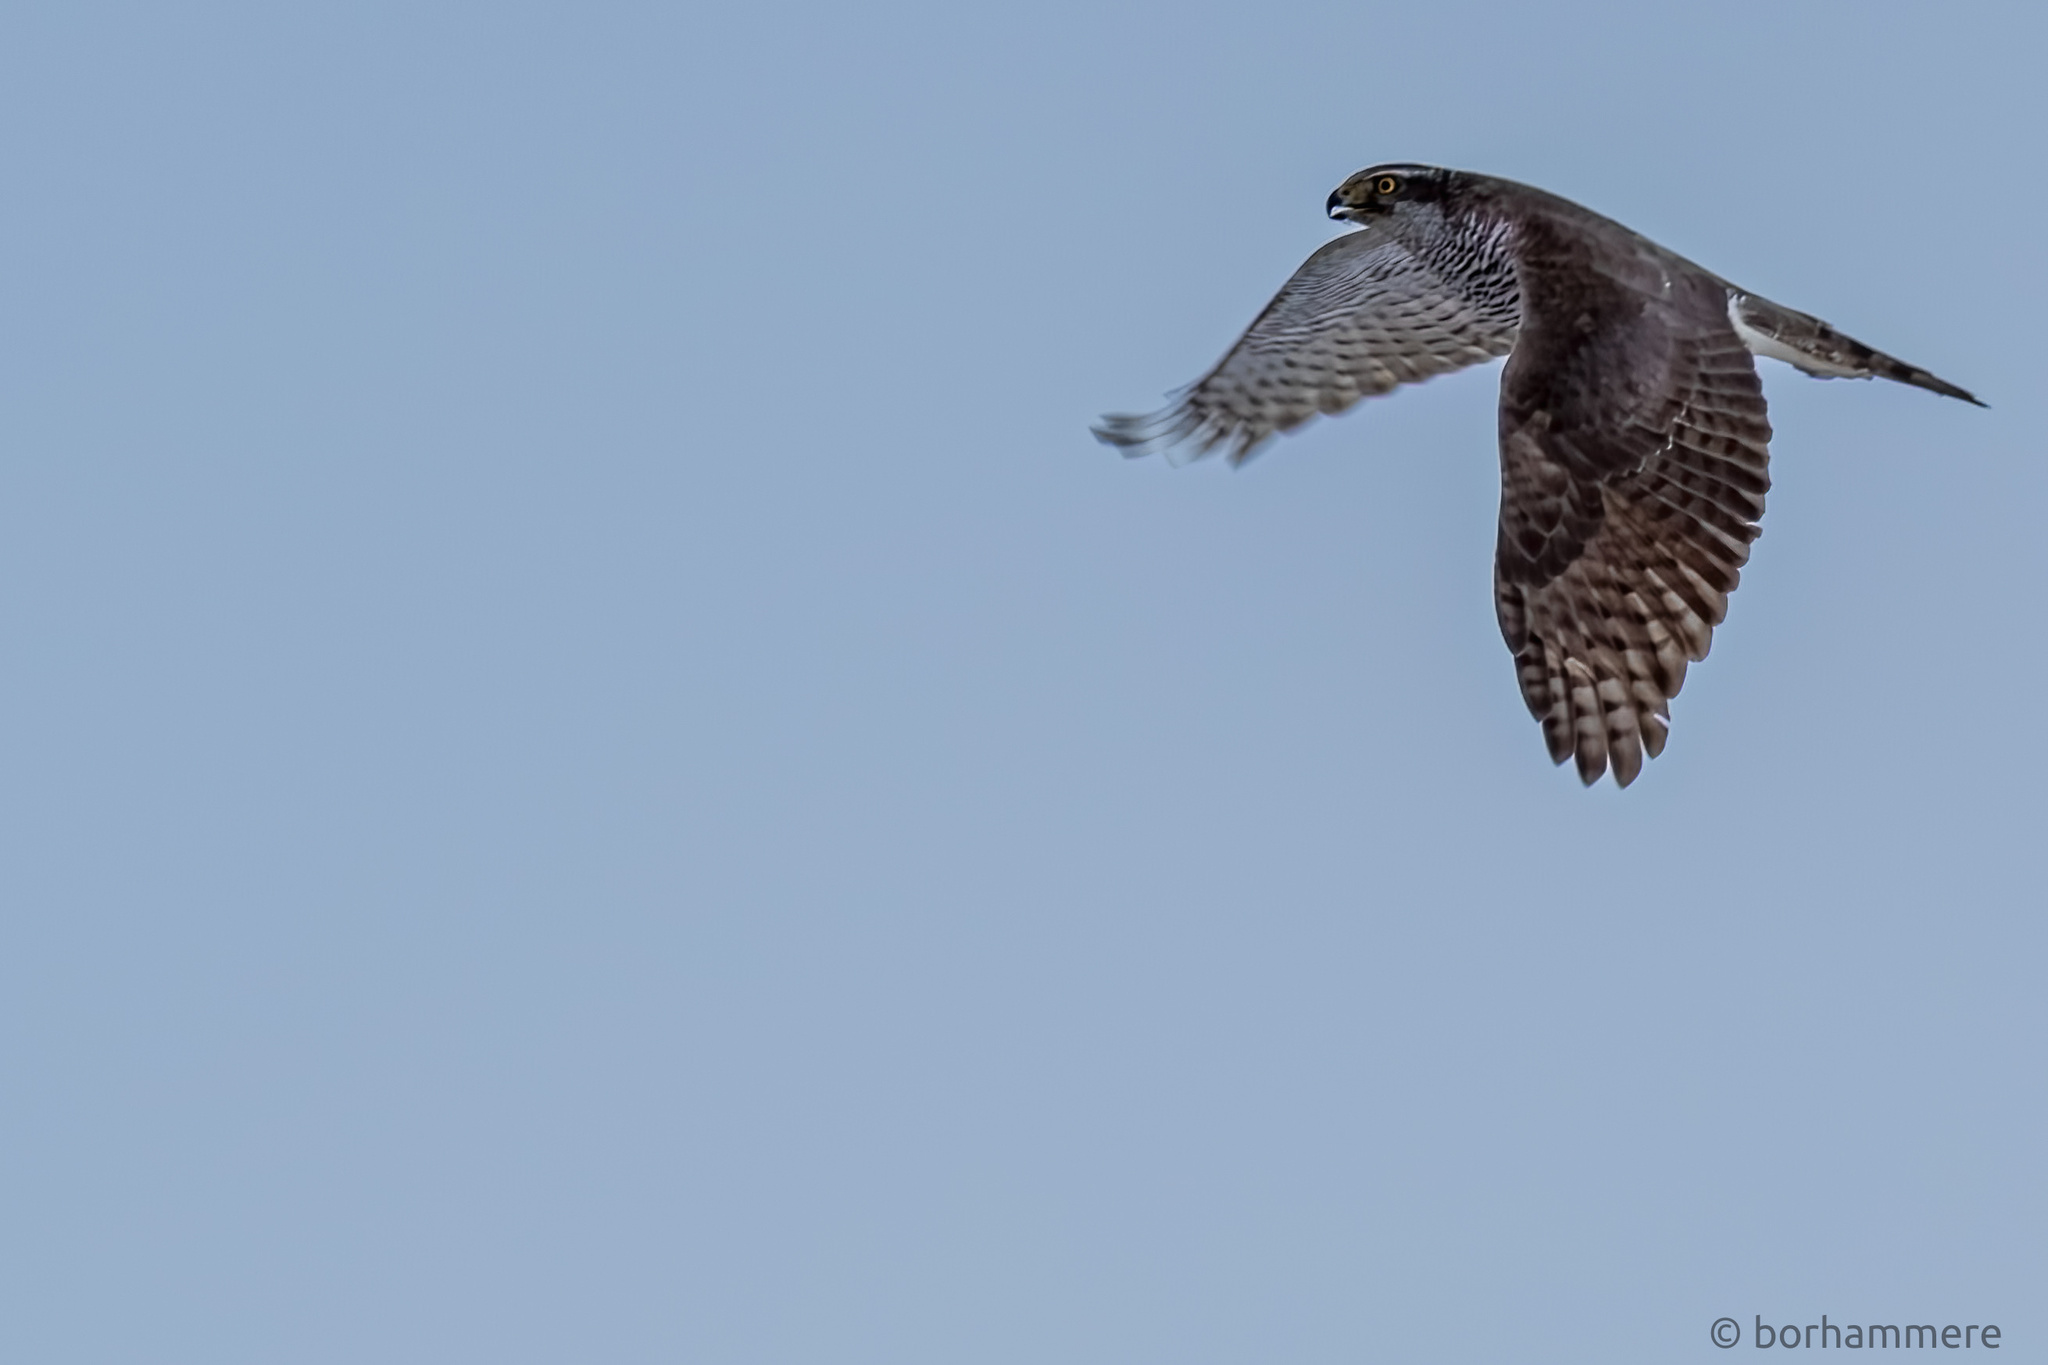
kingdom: Animalia
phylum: Chordata
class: Aves
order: Accipitriformes
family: Accipitridae
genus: Accipiter
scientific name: Accipiter gentilis
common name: Northern goshawk
